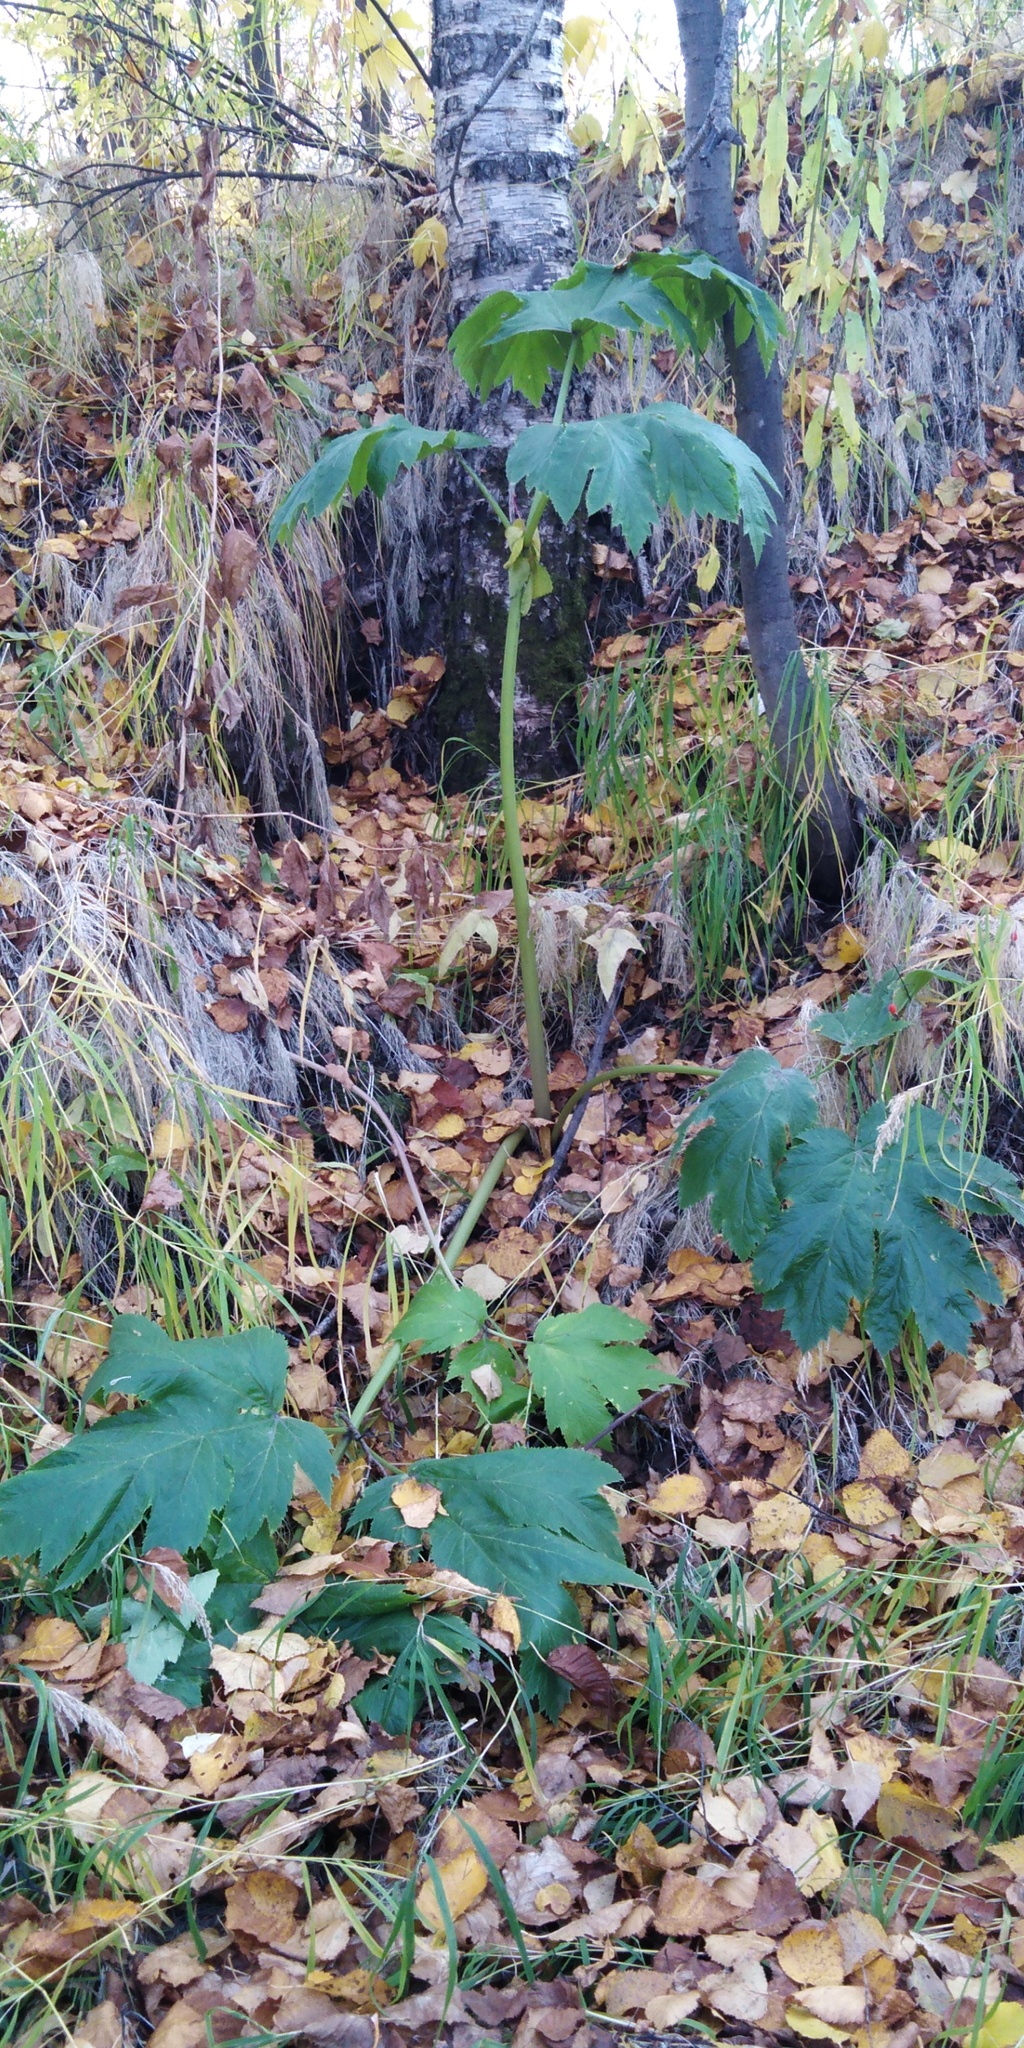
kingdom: Plantae
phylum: Tracheophyta
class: Magnoliopsida
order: Apiales
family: Apiaceae
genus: Heracleum
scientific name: Heracleum maximum
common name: American cow parsnip
